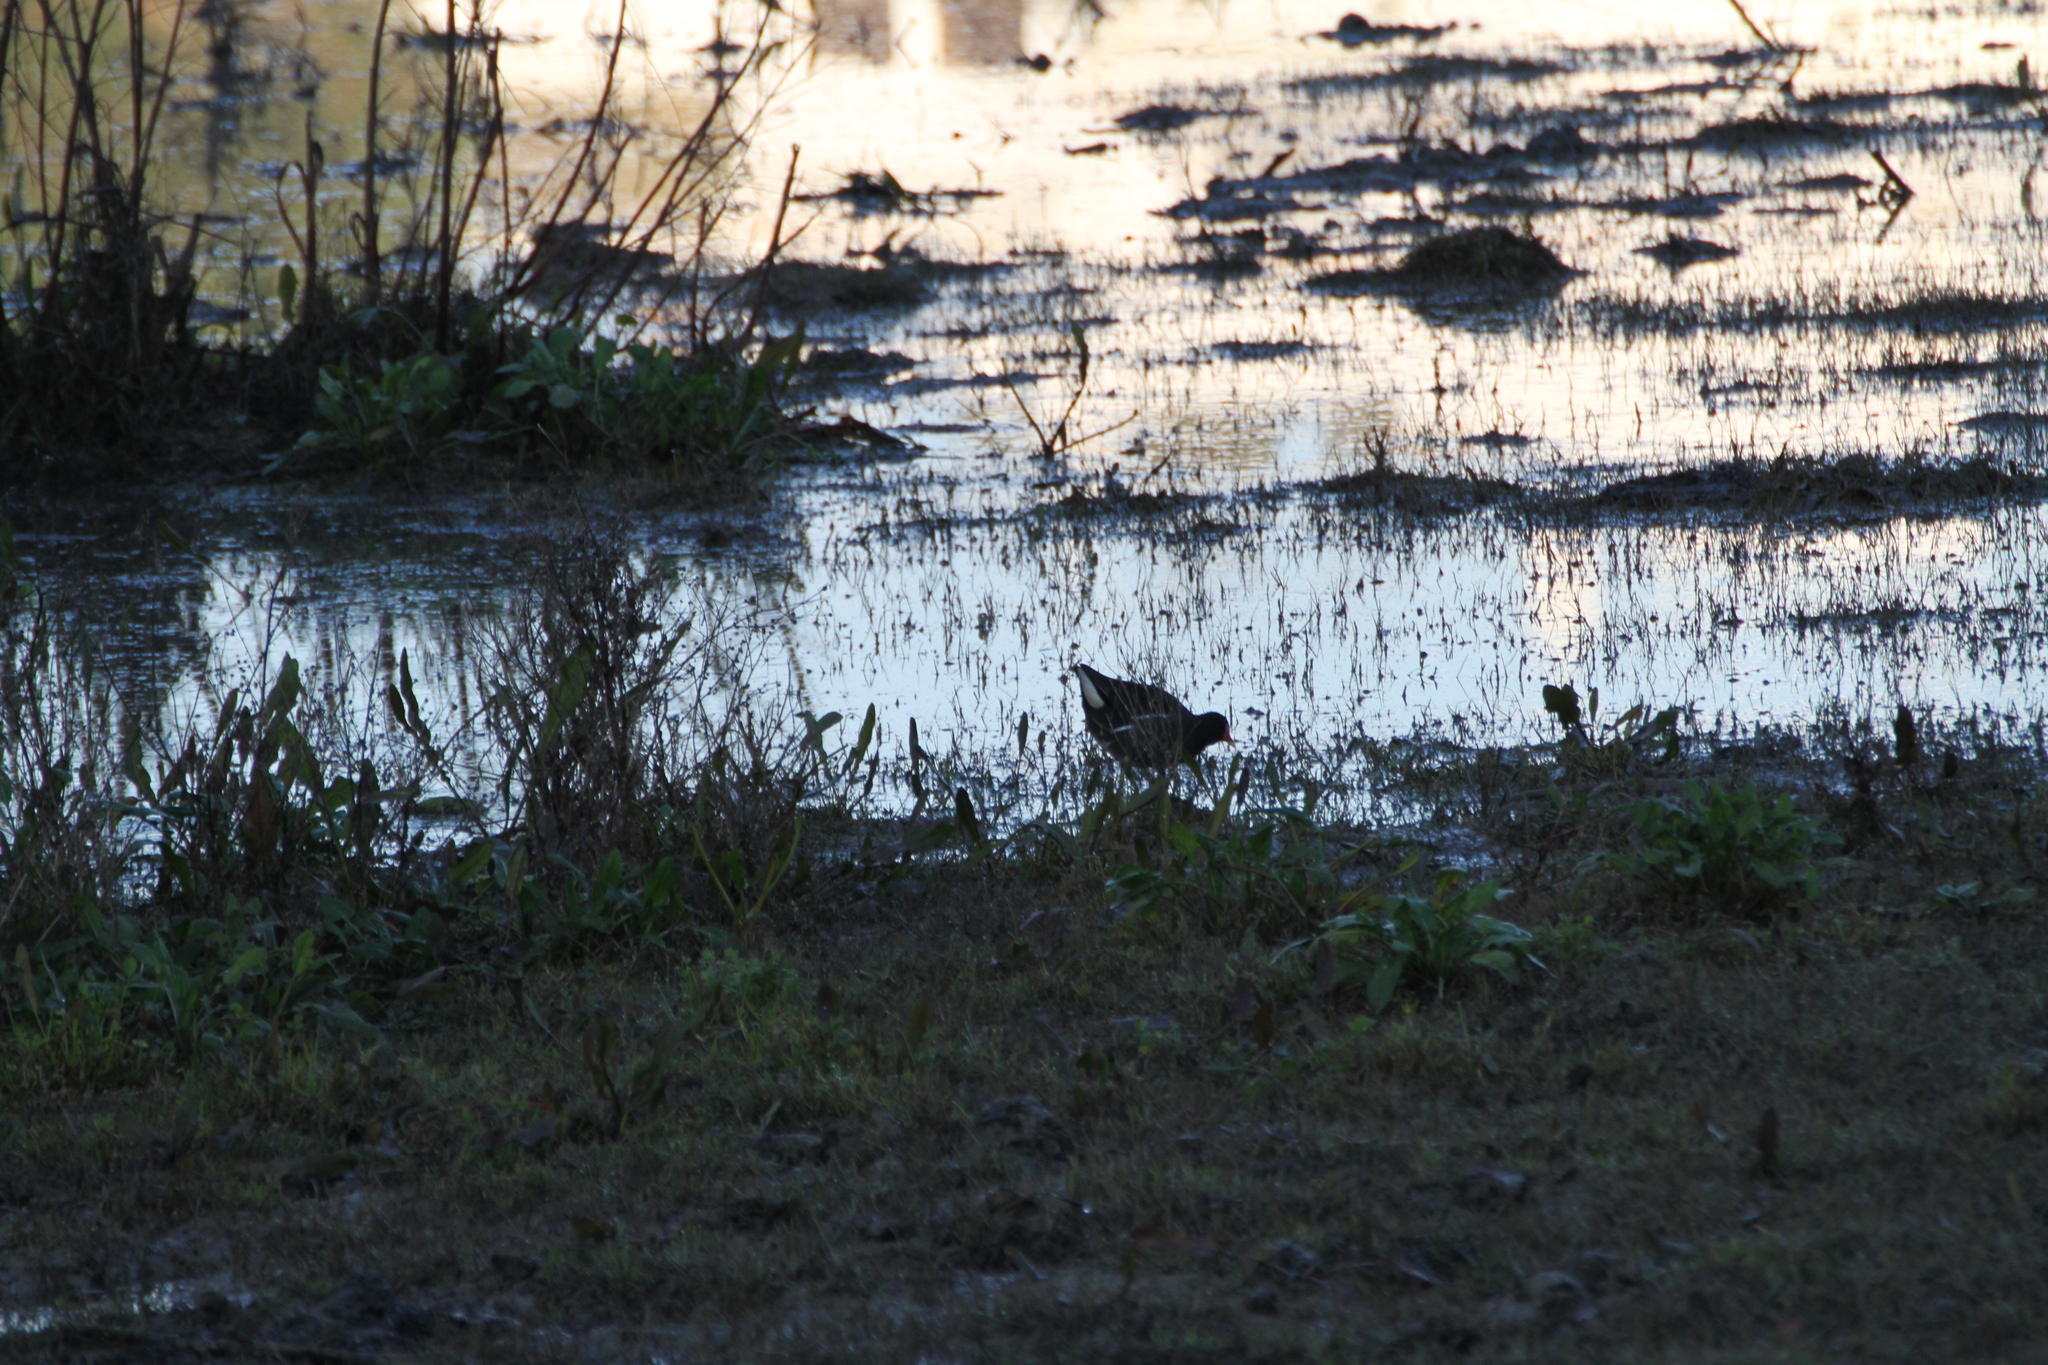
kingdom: Animalia
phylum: Chordata
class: Aves
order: Gruiformes
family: Rallidae
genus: Gallinula
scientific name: Gallinula chloropus
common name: Common moorhen
